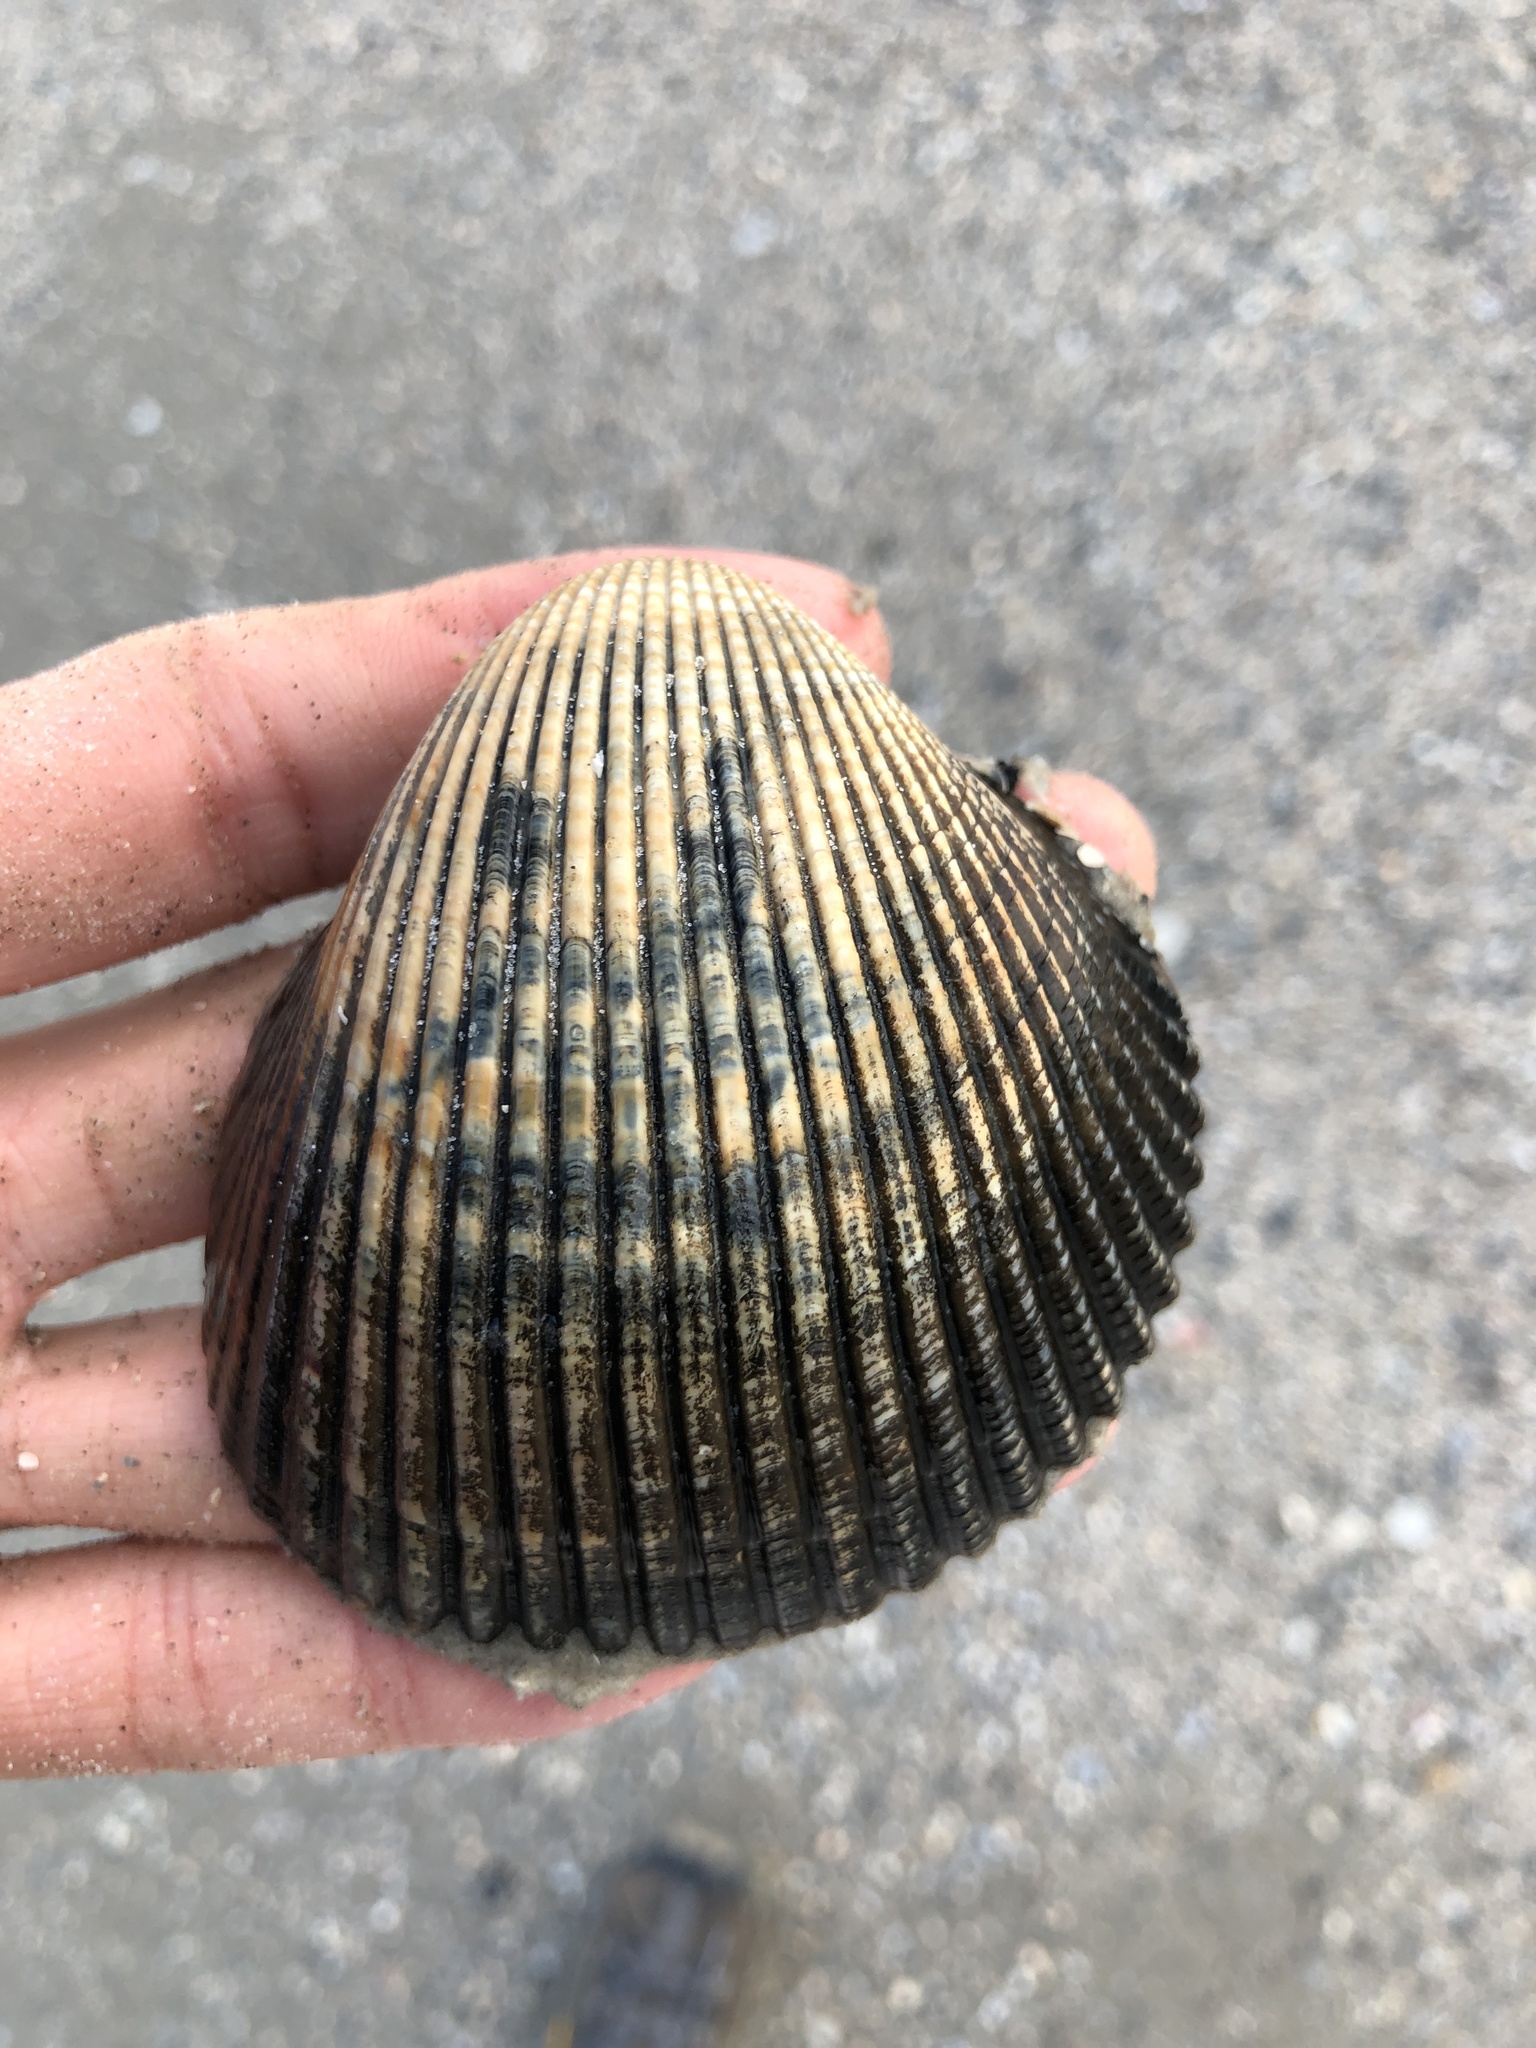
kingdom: Animalia
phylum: Mollusca
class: Bivalvia
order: Cardiida
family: Cardiidae
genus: Dinocardium
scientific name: Dinocardium robustum
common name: Atlantic giant cockle
